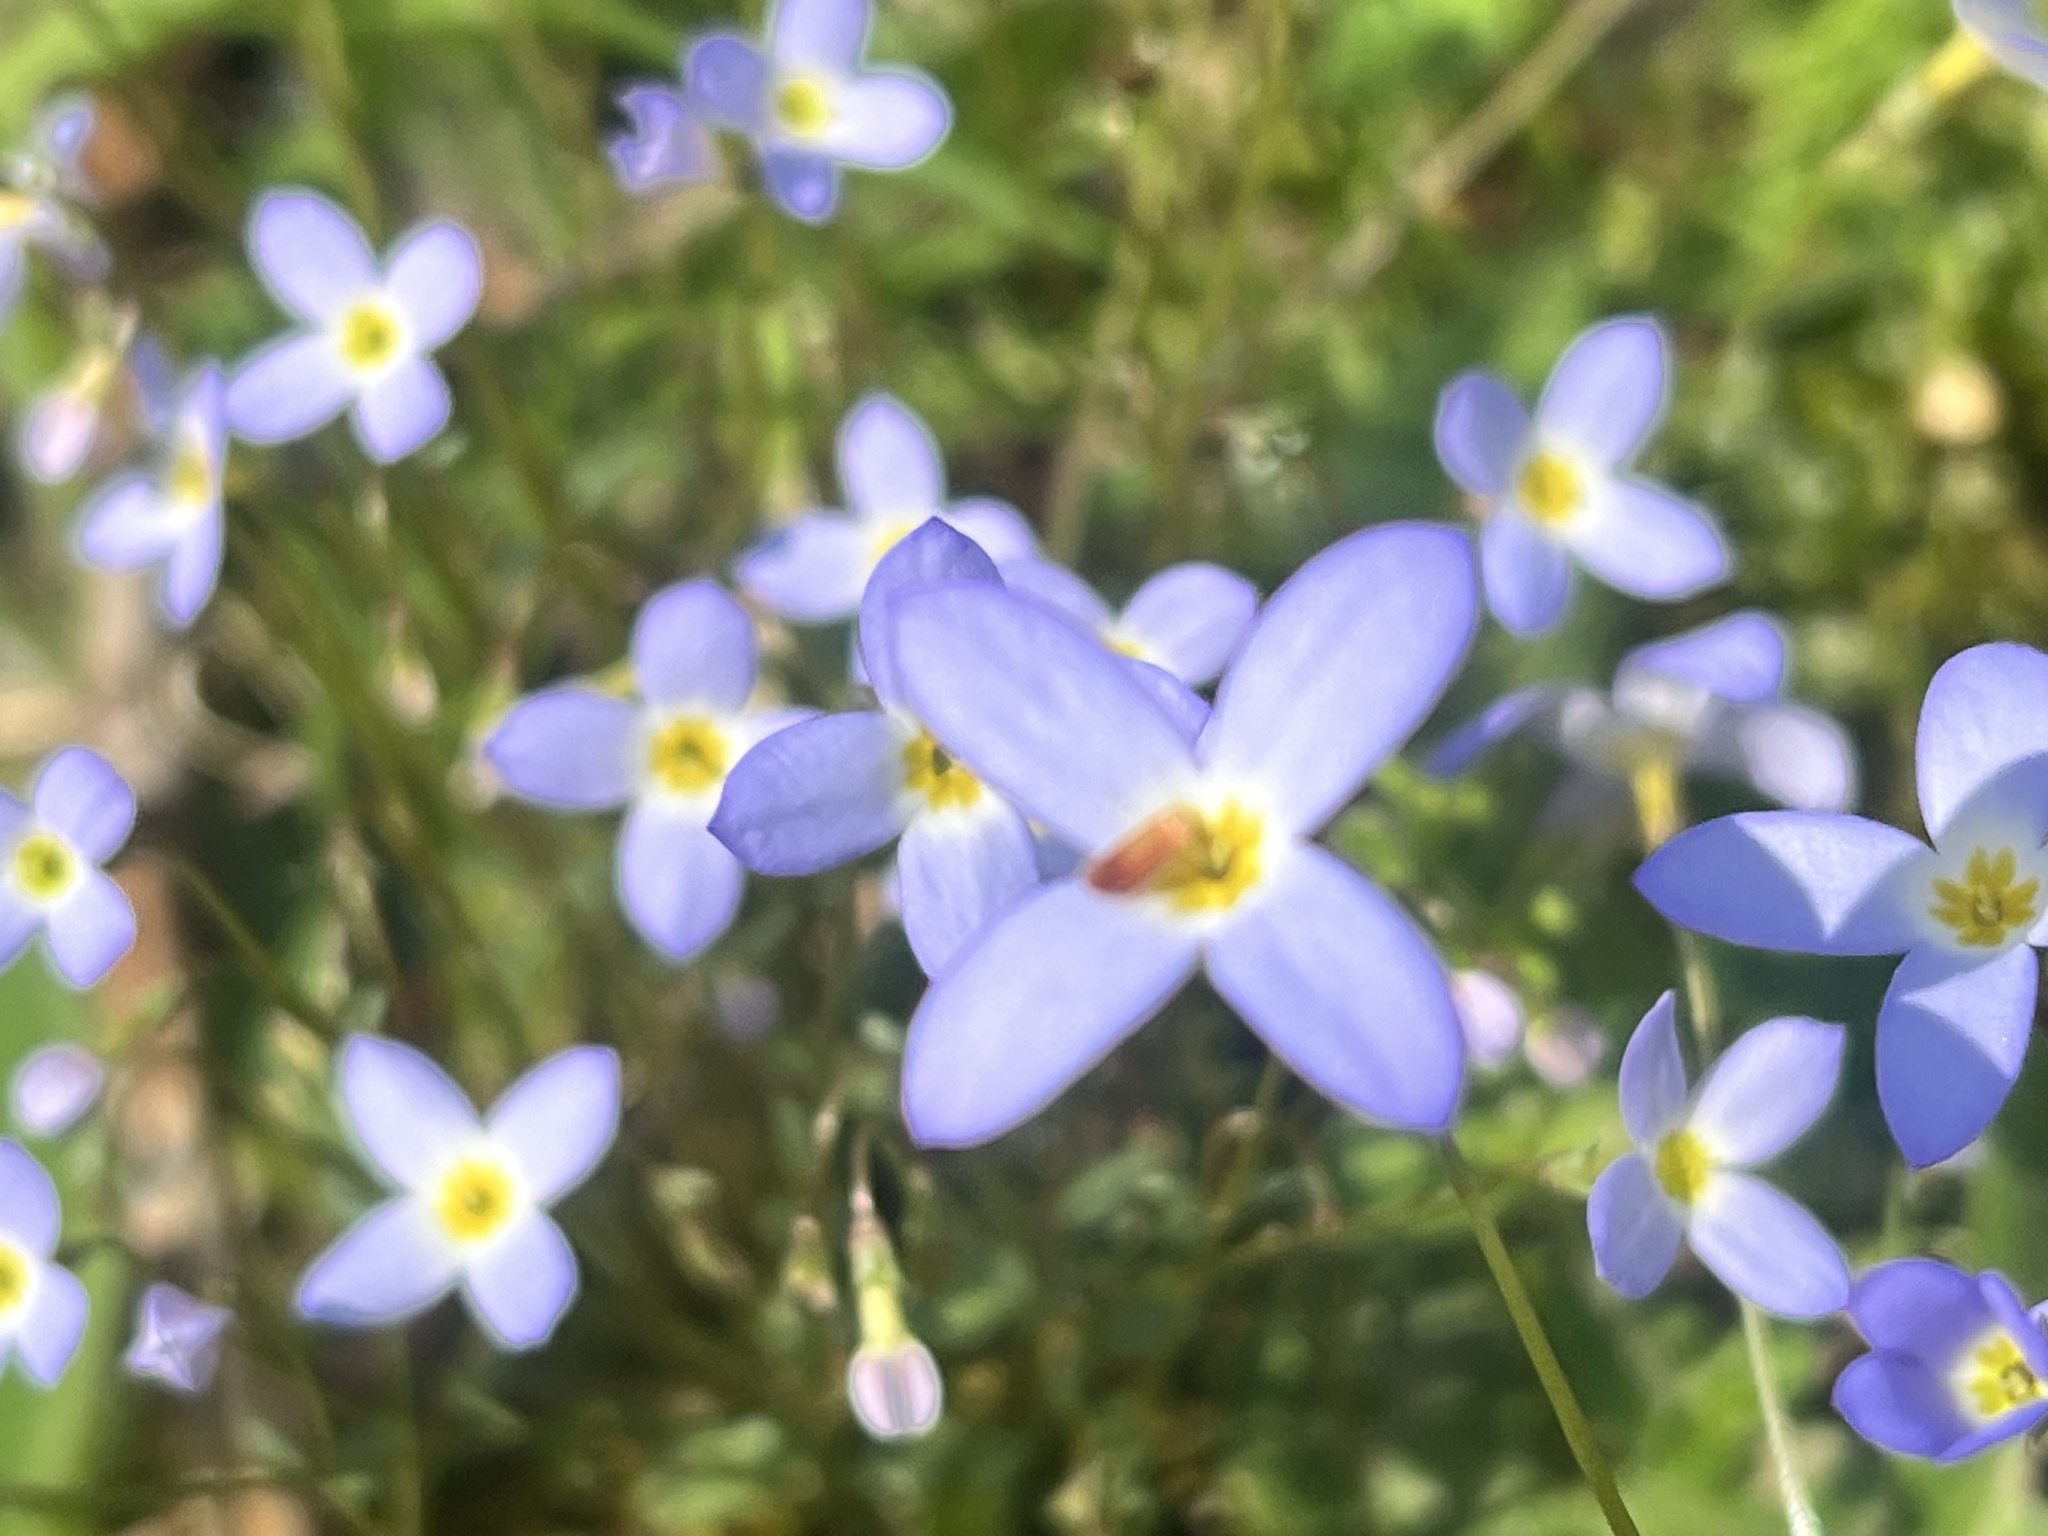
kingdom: Plantae
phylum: Tracheophyta
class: Magnoliopsida
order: Gentianales
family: Rubiaceae
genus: Houstonia
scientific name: Houstonia caerulea
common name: Bluets
